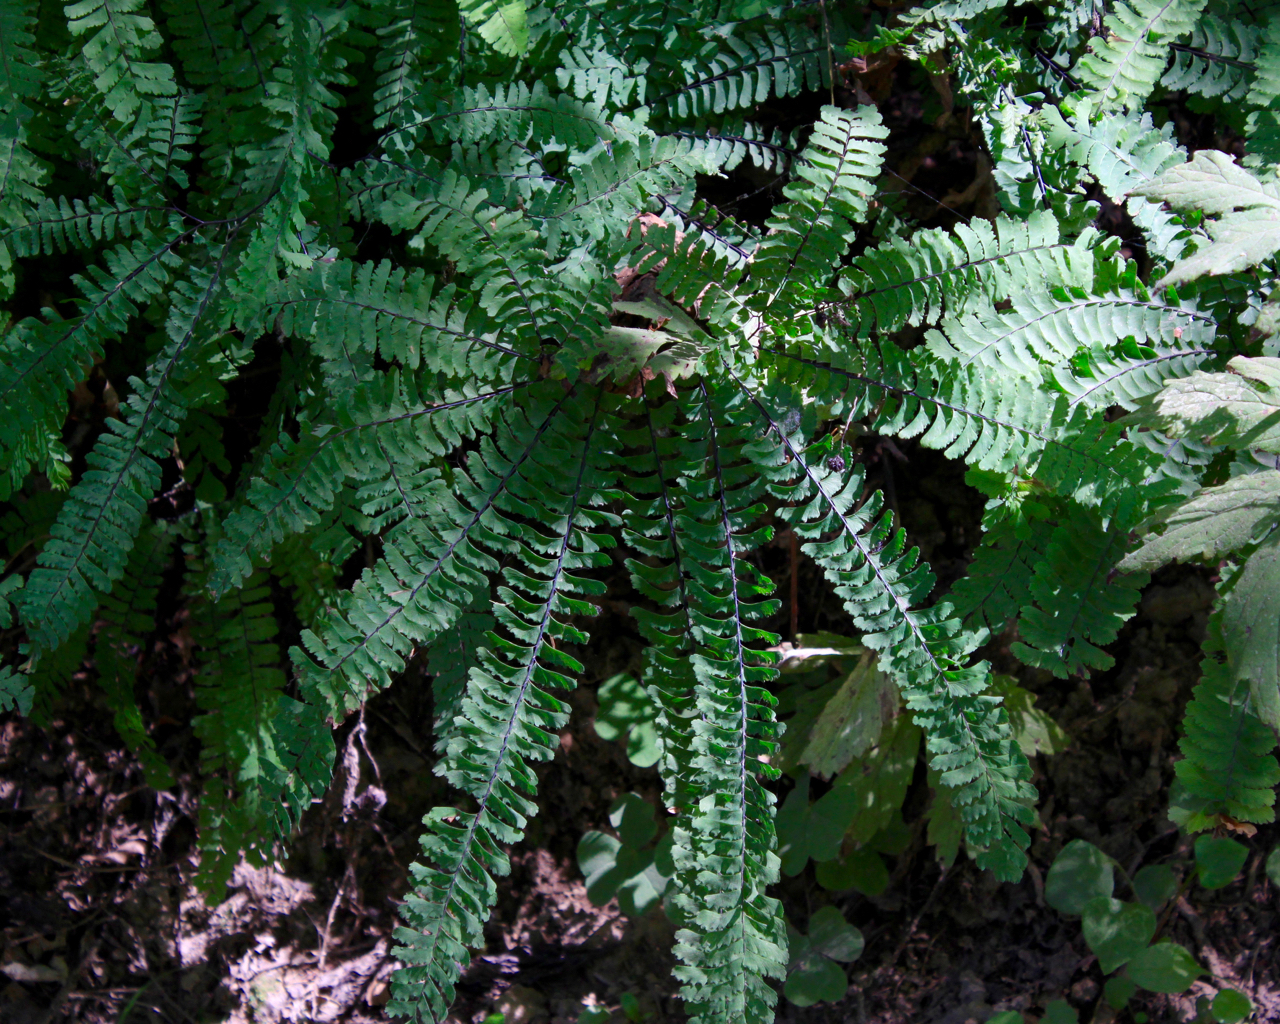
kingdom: Plantae
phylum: Tracheophyta
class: Polypodiopsida
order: Polypodiales
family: Pteridaceae
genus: Adiantum
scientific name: Adiantum aleuticum
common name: Aleutian maidenhair fern
